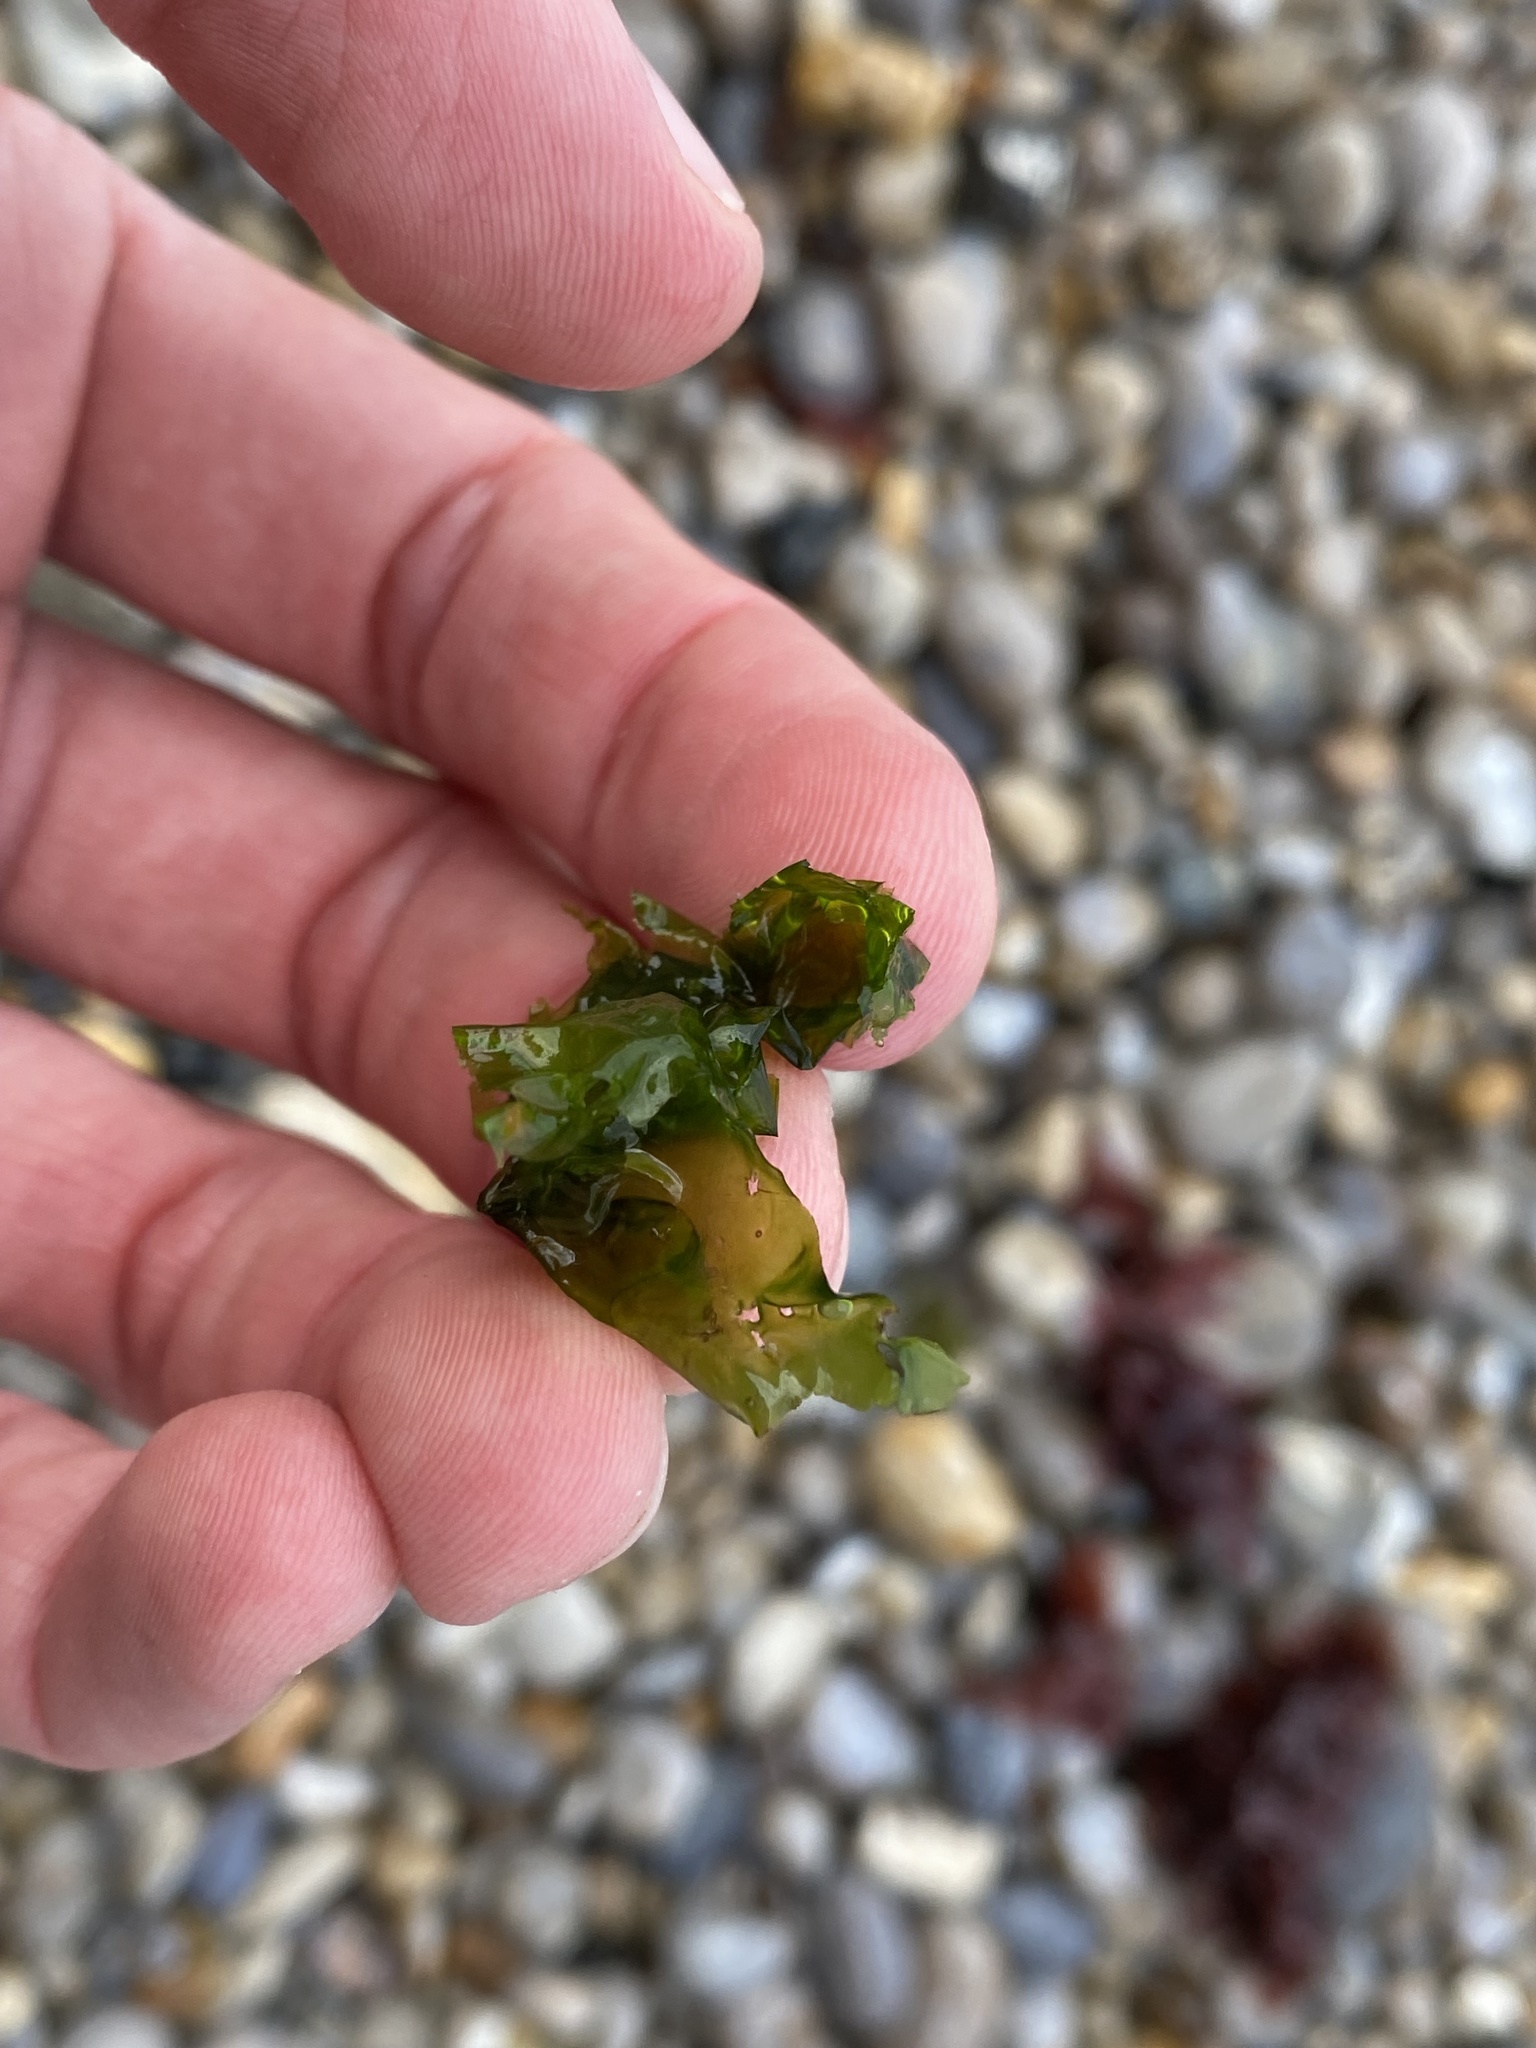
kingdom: Plantae
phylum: Chlorophyta
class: Ulvophyceae
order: Ulvales
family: Ulvaceae
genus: Ulva
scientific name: Ulva
